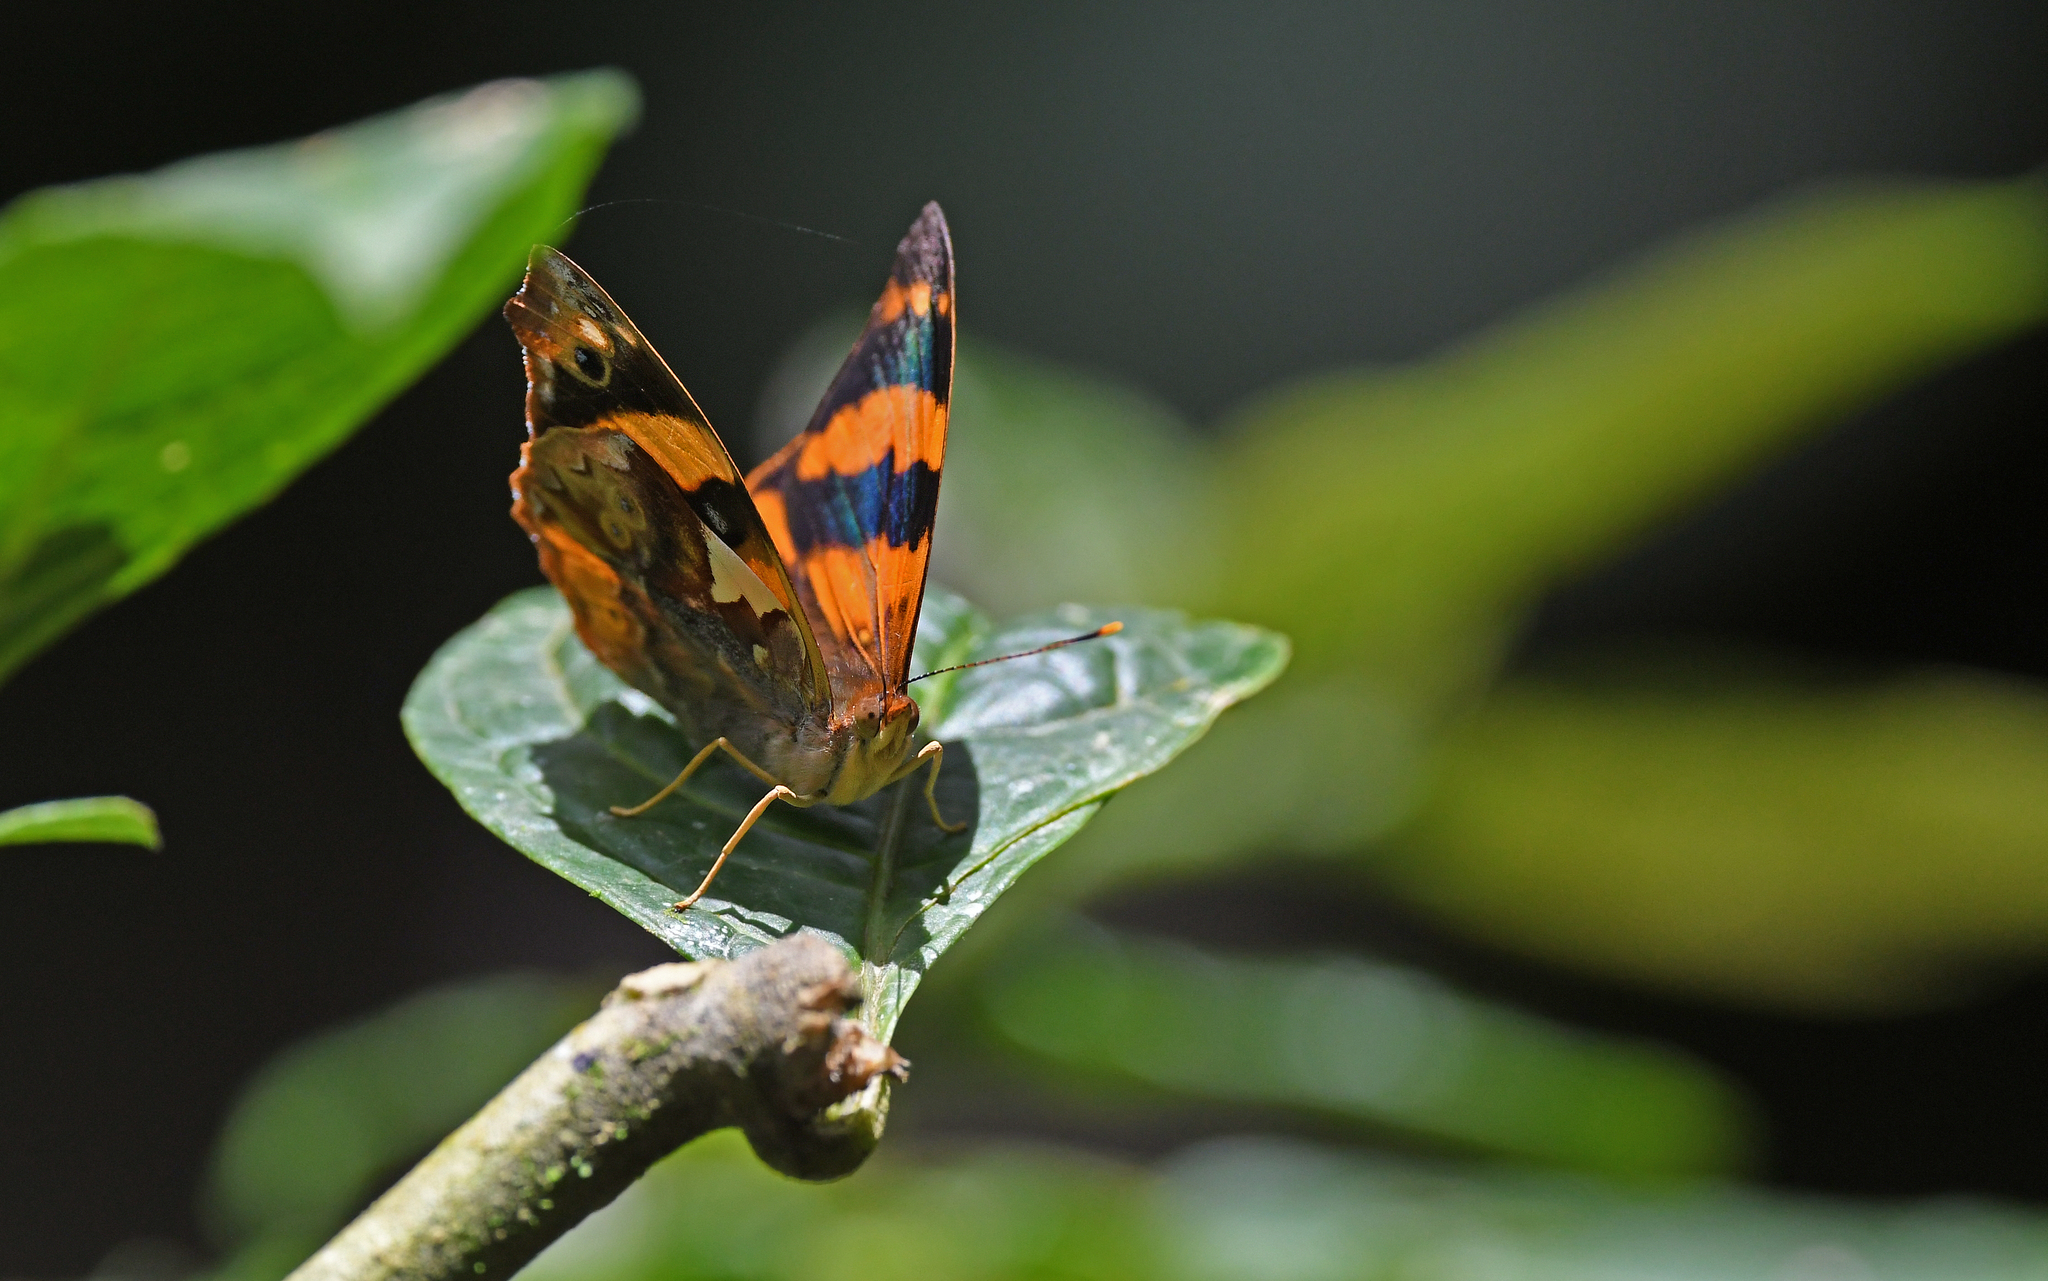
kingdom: Animalia
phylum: Arthropoda
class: Insecta
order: Lepidoptera
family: Nymphalidae
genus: Epiphile
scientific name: Epiphile chrysites
